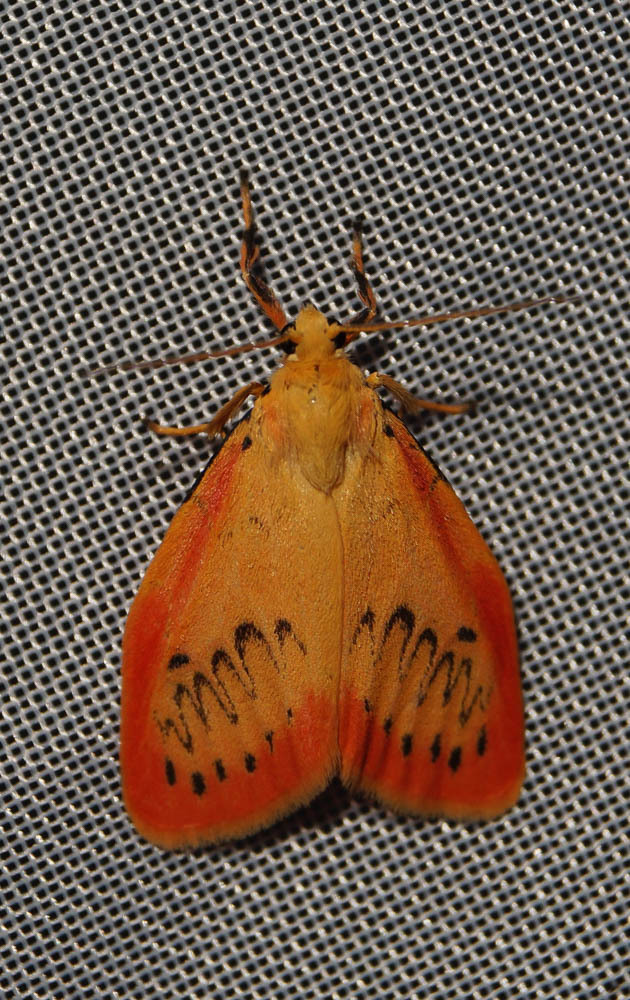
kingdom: Animalia
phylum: Arthropoda
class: Insecta
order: Lepidoptera
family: Erebidae
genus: Miltochrista
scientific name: Miltochrista miniata
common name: Rosy footman
